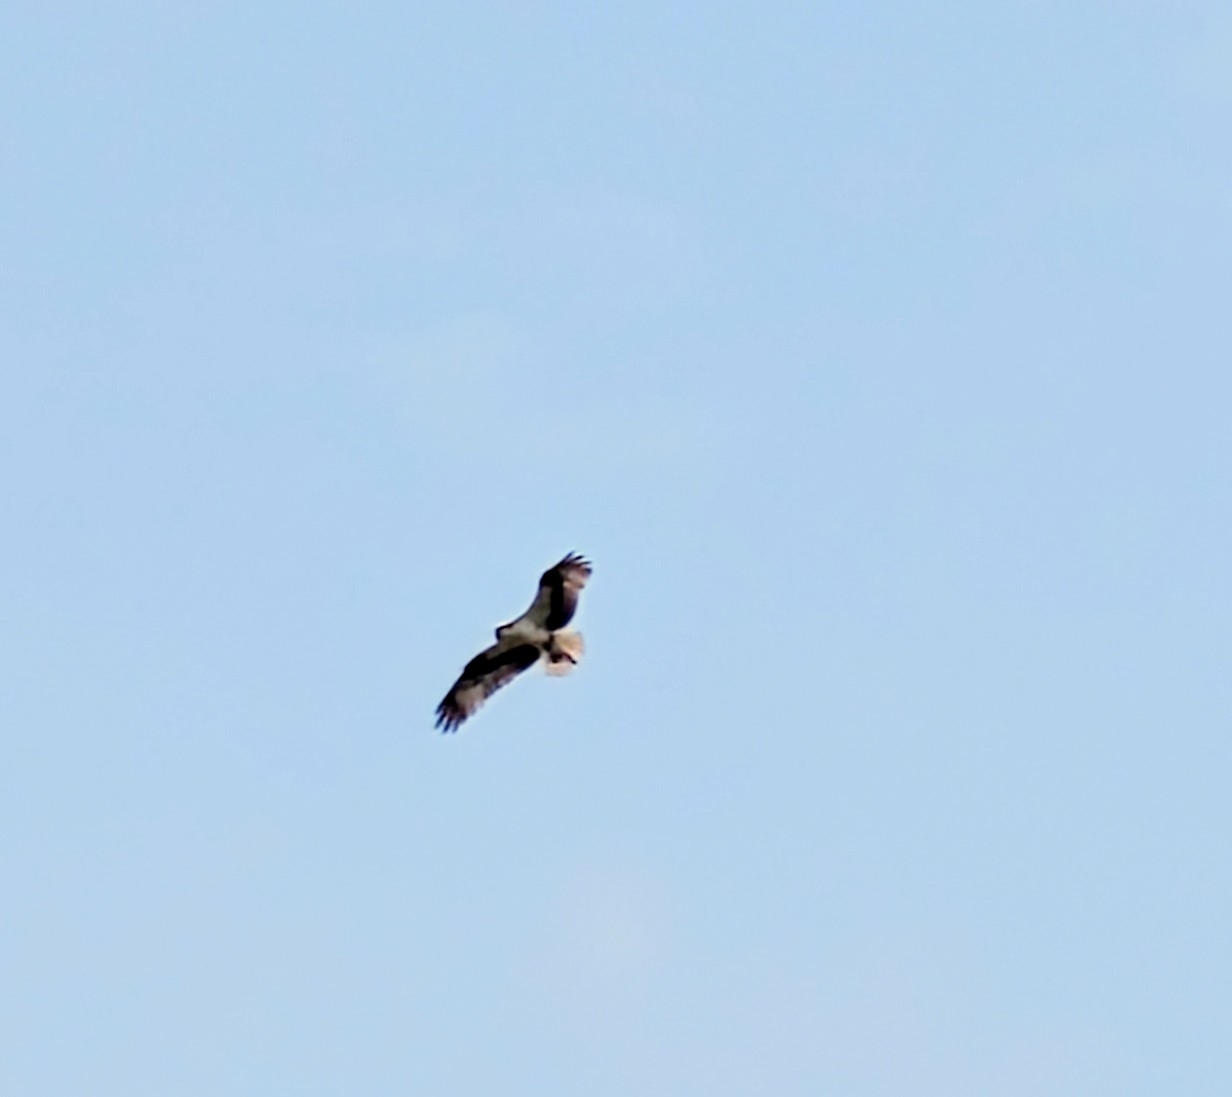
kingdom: Animalia
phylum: Chordata
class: Aves
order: Accipitriformes
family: Pandionidae
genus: Pandion
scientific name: Pandion haliaetus
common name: Osprey
